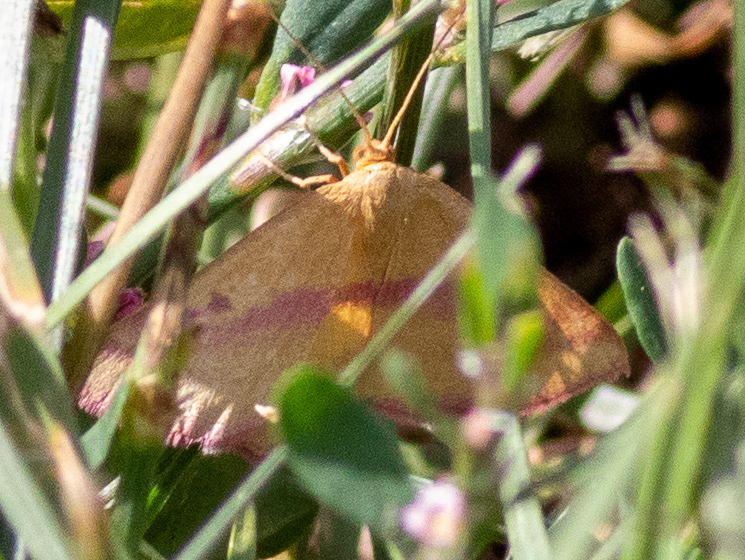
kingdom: Animalia
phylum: Arthropoda
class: Insecta
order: Lepidoptera
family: Geometridae
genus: Haematopis
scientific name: Haematopis grataria
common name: Chickweed geometer
